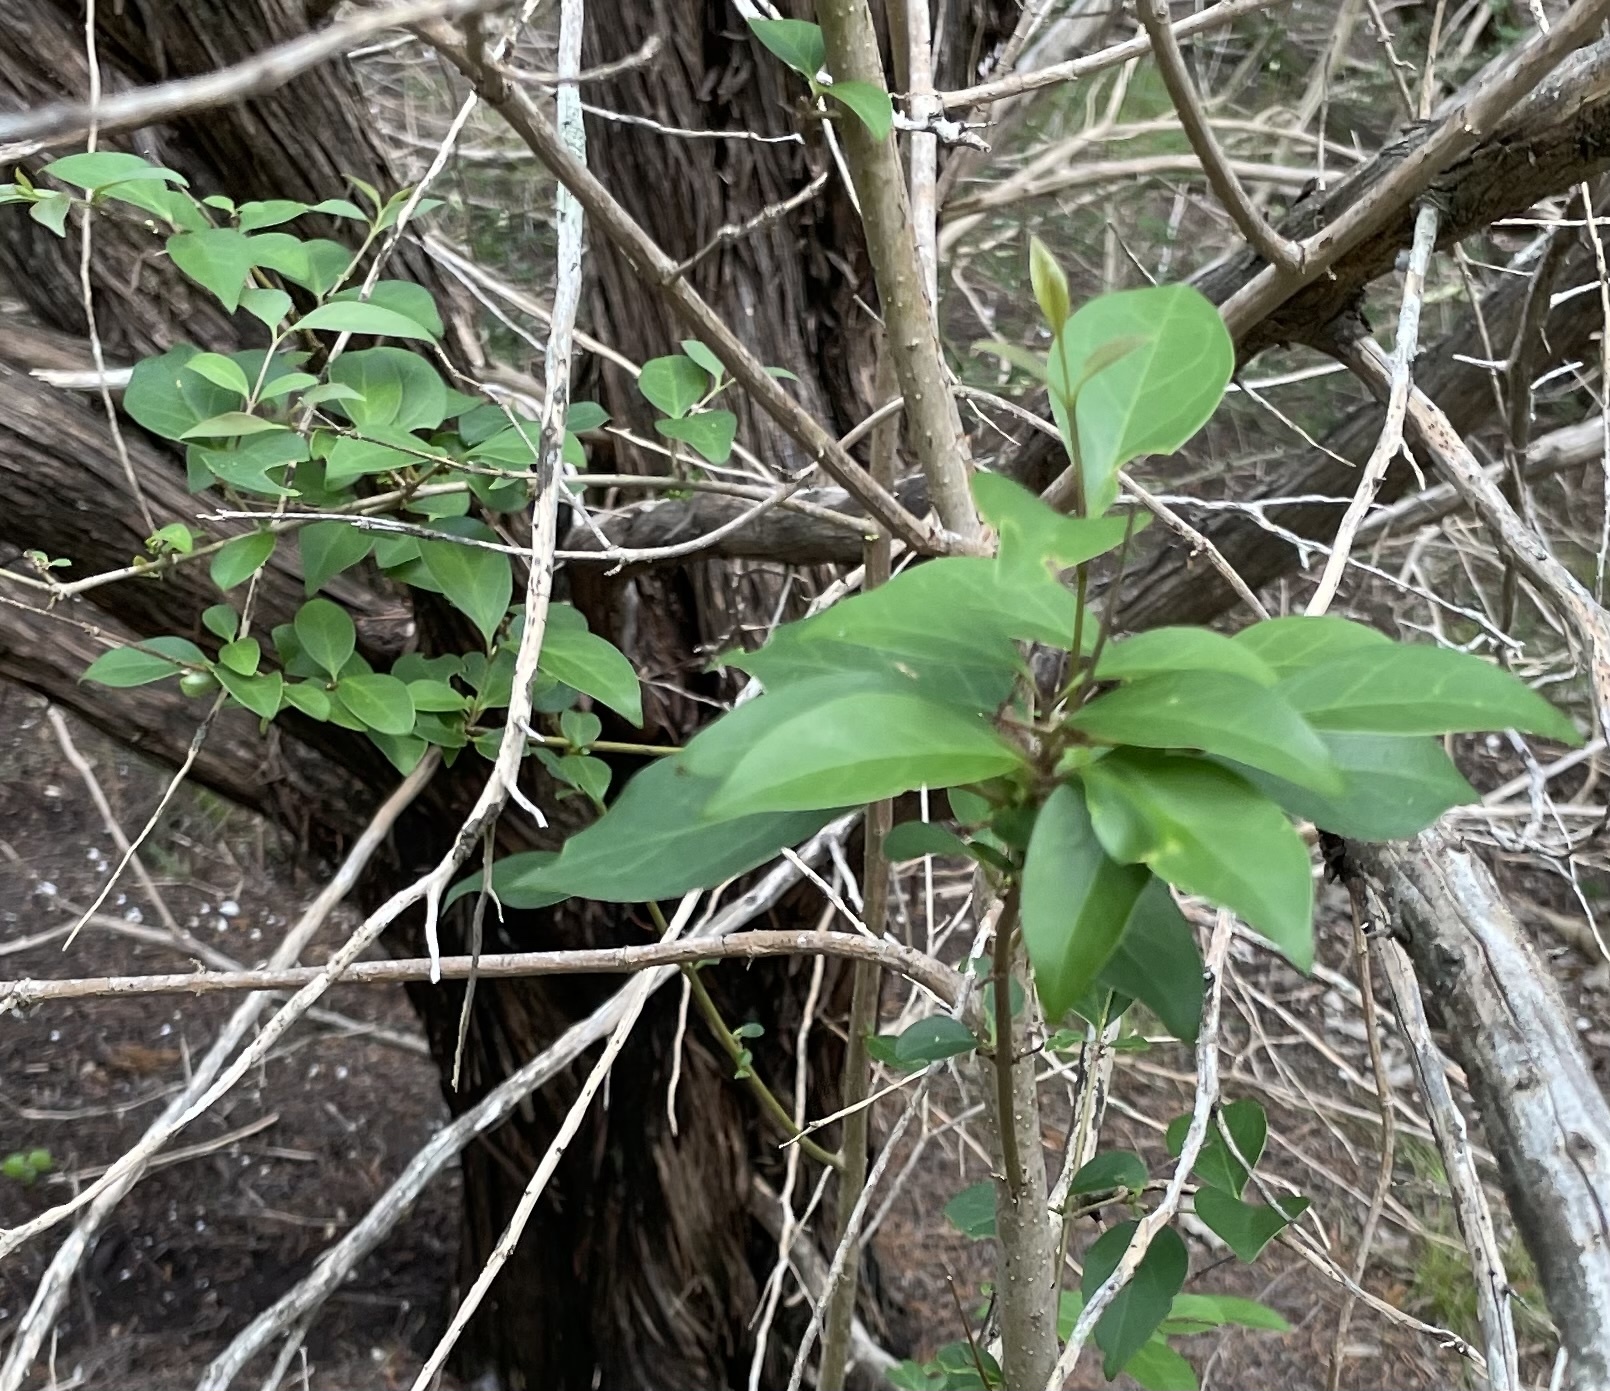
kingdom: Plantae
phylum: Tracheophyta
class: Magnoliopsida
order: Lamiales
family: Oleaceae
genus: Ligustrum
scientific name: Ligustrum lucidum
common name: Glossy privet
